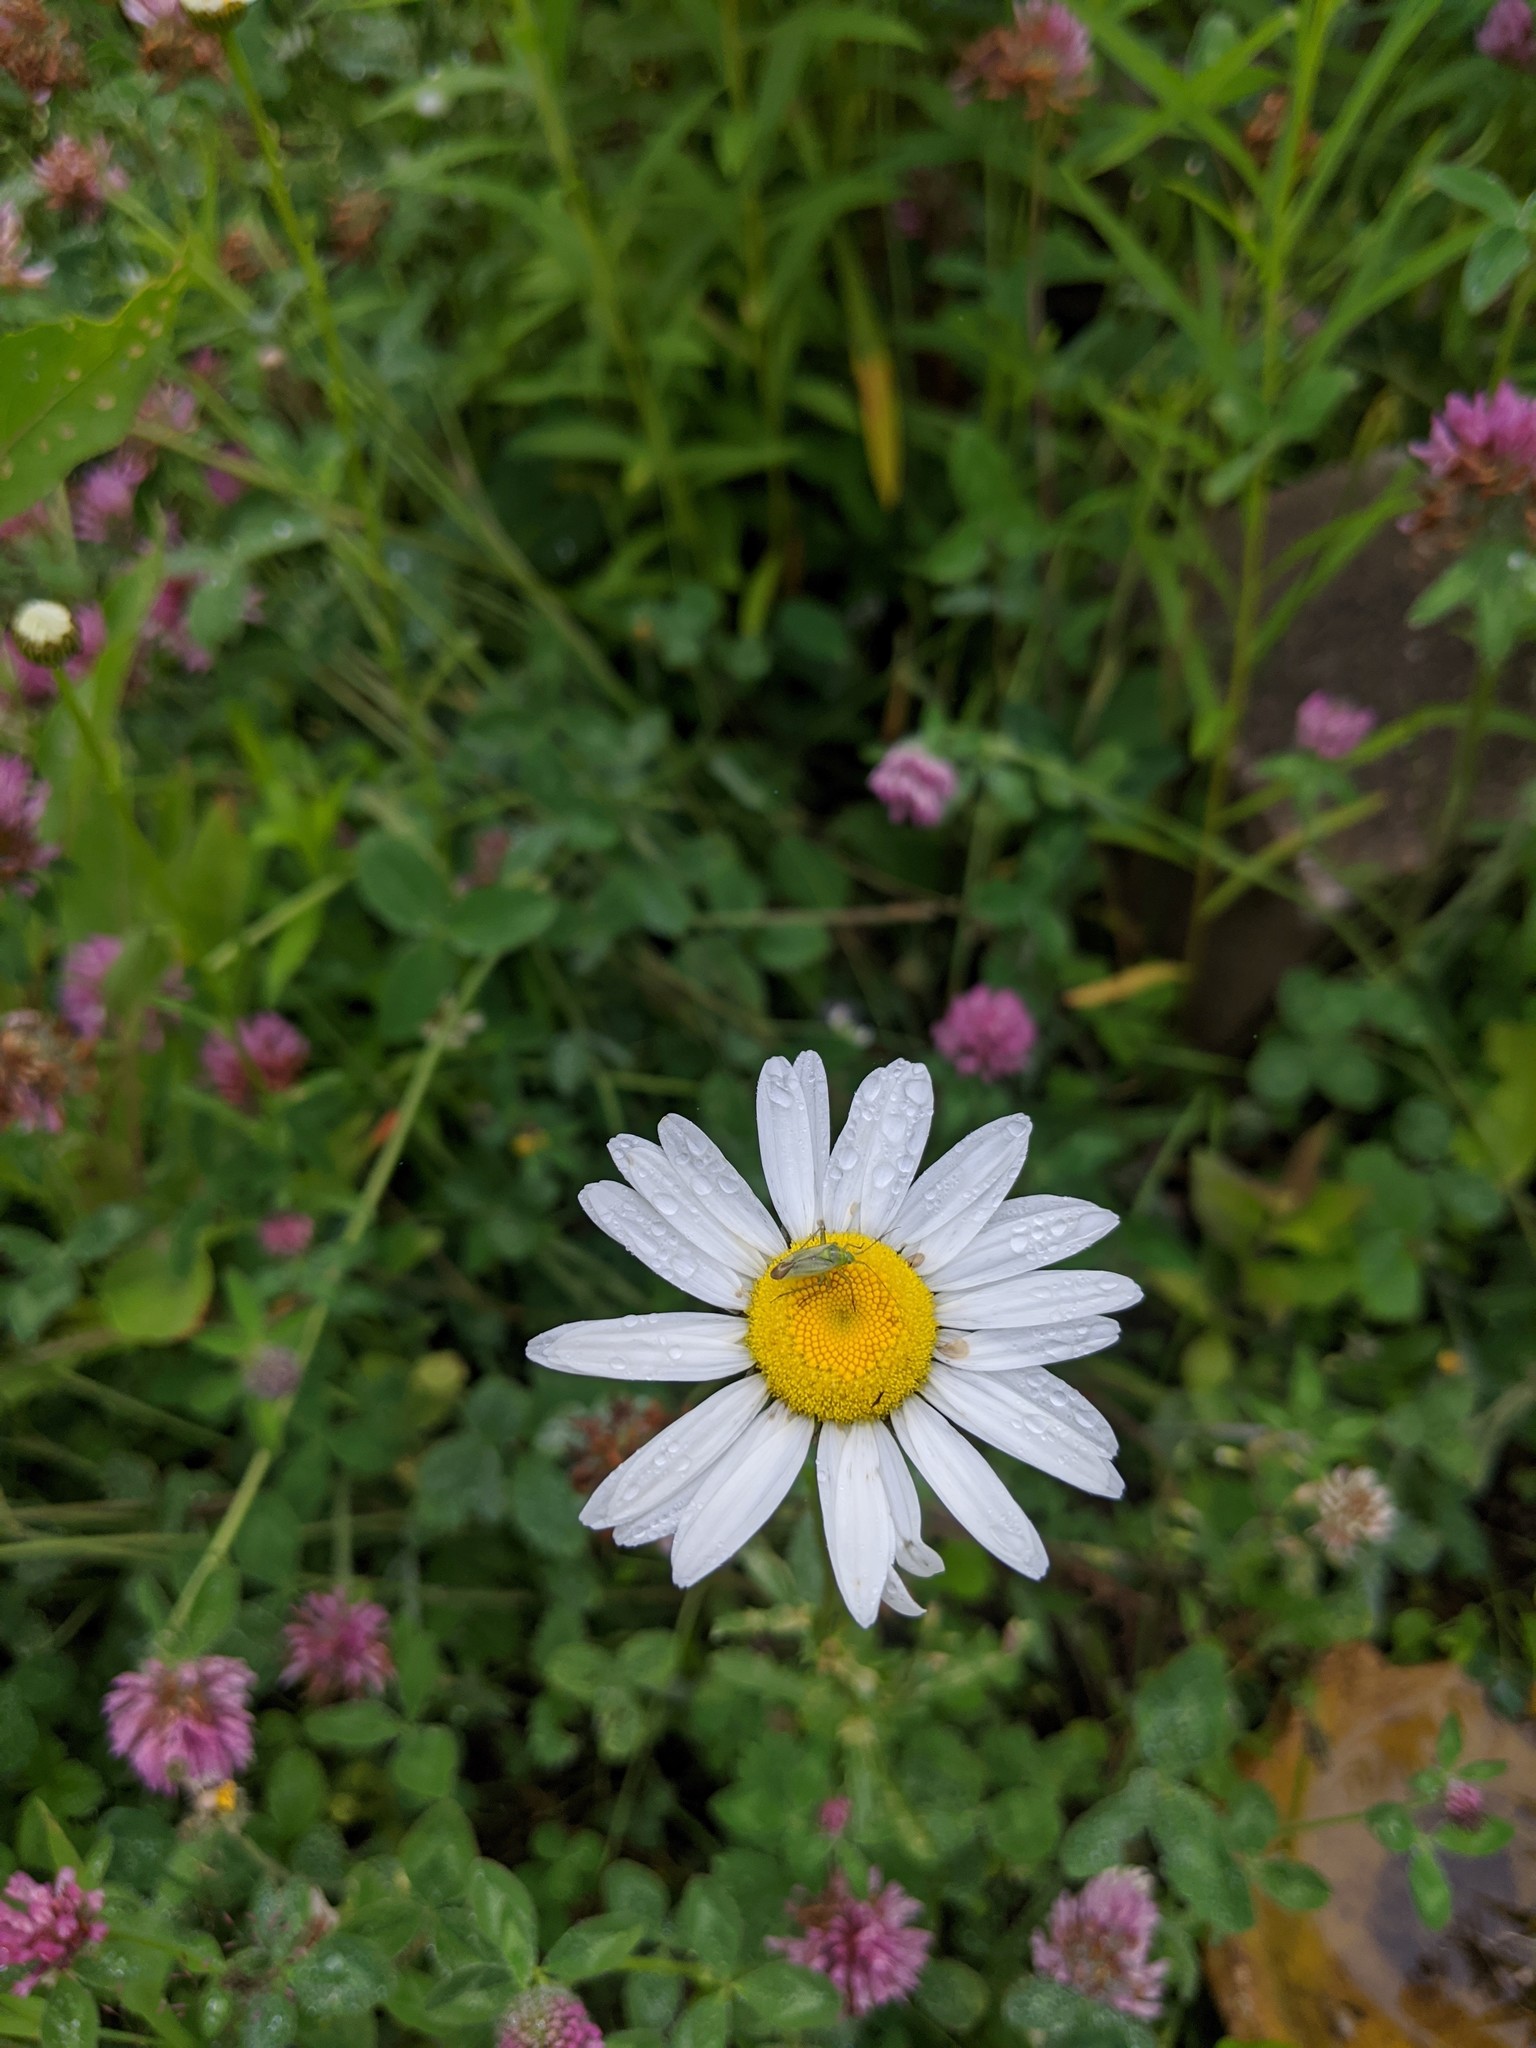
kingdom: Plantae
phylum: Tracheophyta
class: Magnoliopsida
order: Asterales
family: Asteraceae
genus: Leucanthemum
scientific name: Leucanthemum vulgare
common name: Oxeye daisy
